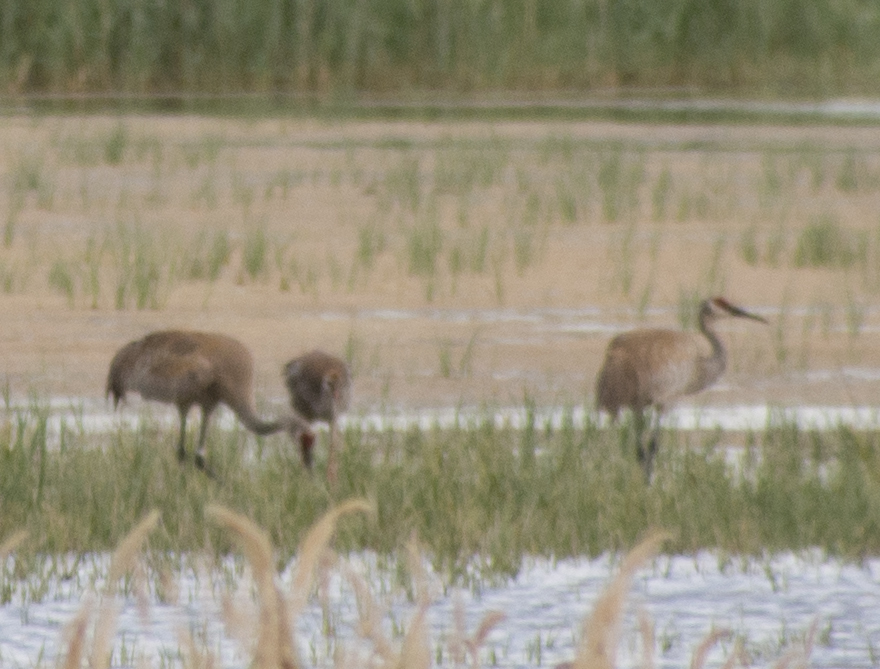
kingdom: Animalia
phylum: Chordata
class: Aves
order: Gruiformes
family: Gruidae
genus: Grus
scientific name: Grus canadensis
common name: Sandhill crane
